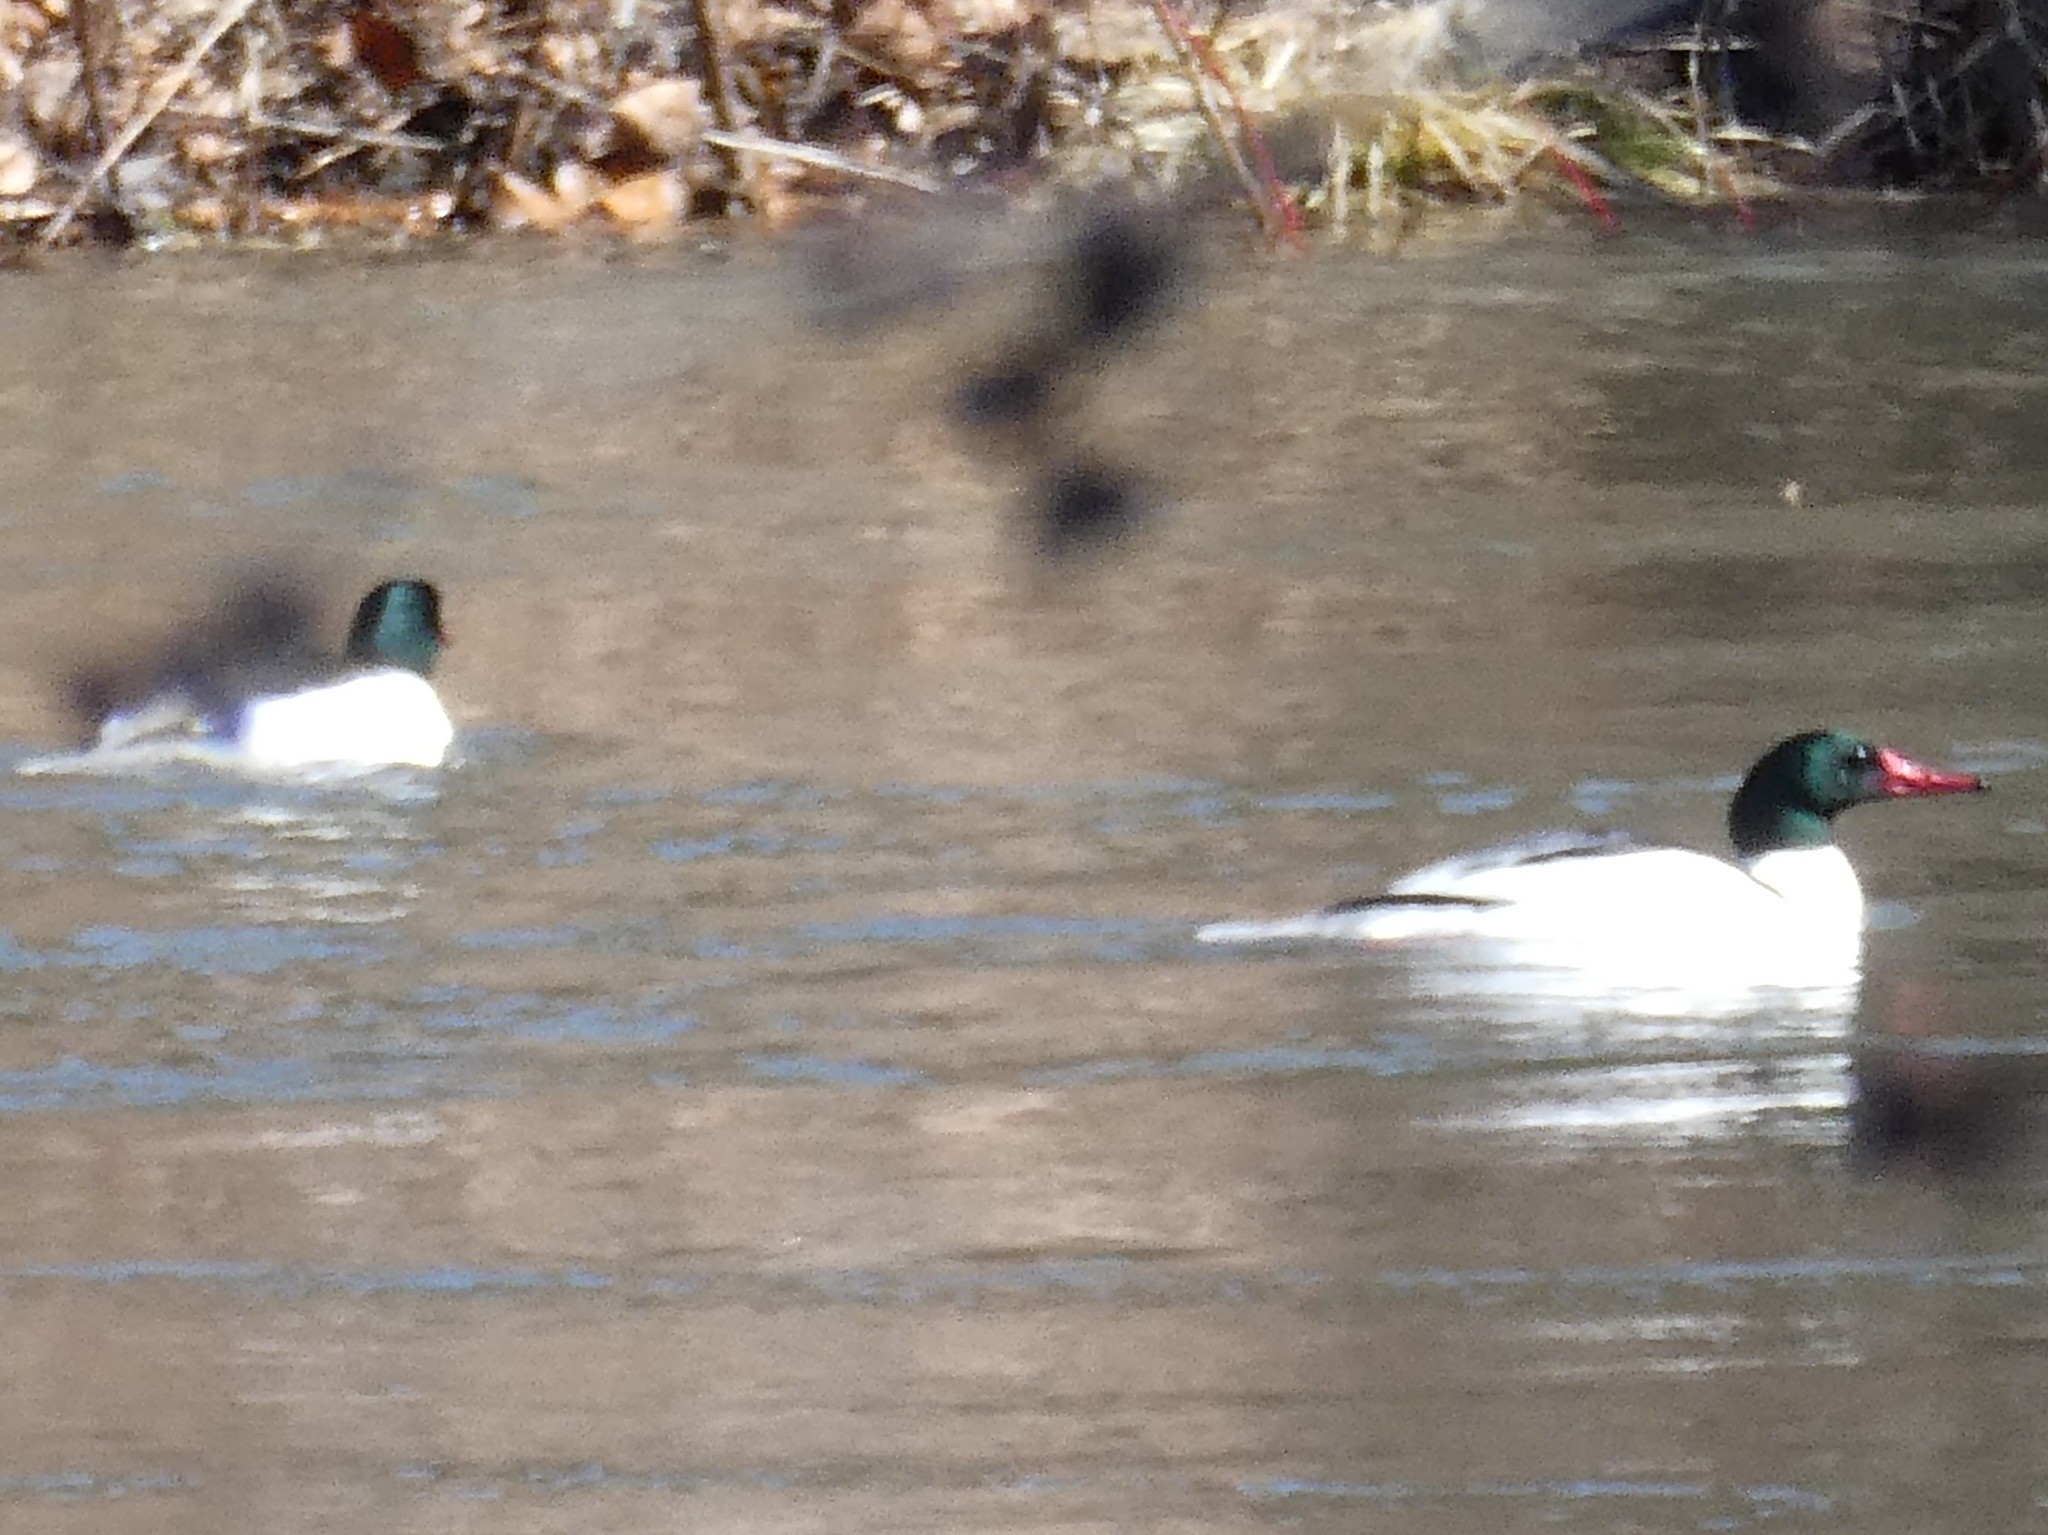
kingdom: Animalia
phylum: Chordata
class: Aves
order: Anseriformes
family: Anatidae
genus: Mergus
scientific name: Mergus merganser
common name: Common merganser
